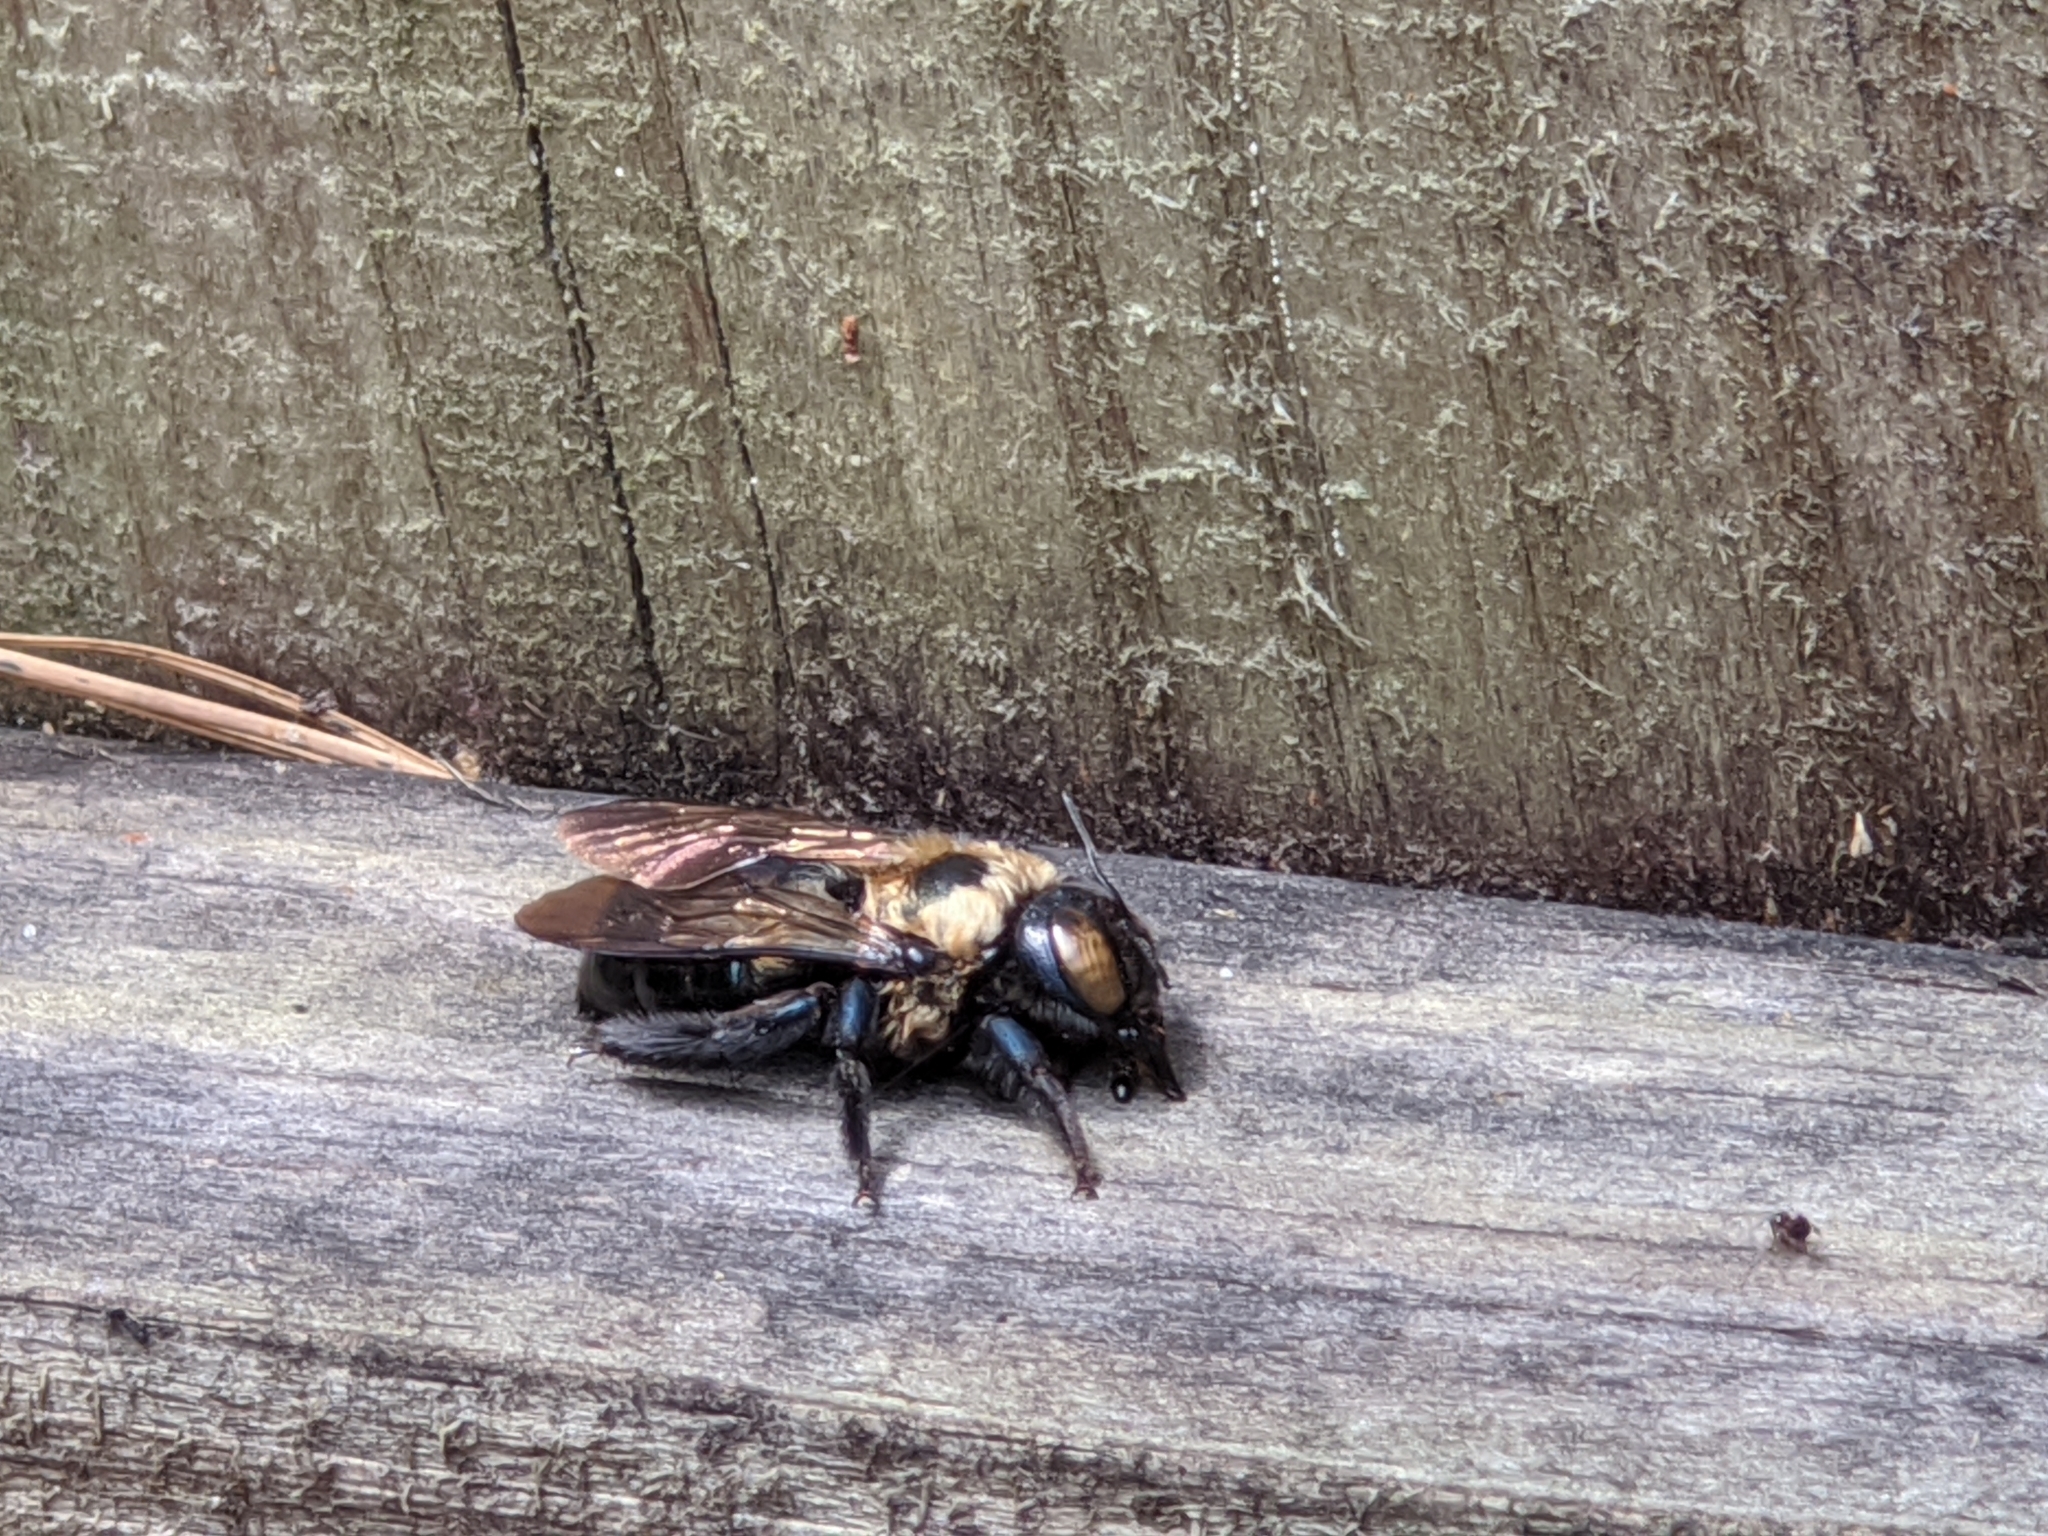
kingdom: Animalia
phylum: Arthropoda
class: Insecta
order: Hymenoptera
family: Apidae
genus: Xylocopa
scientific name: Xylocopa virginica
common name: Carpenter bee
